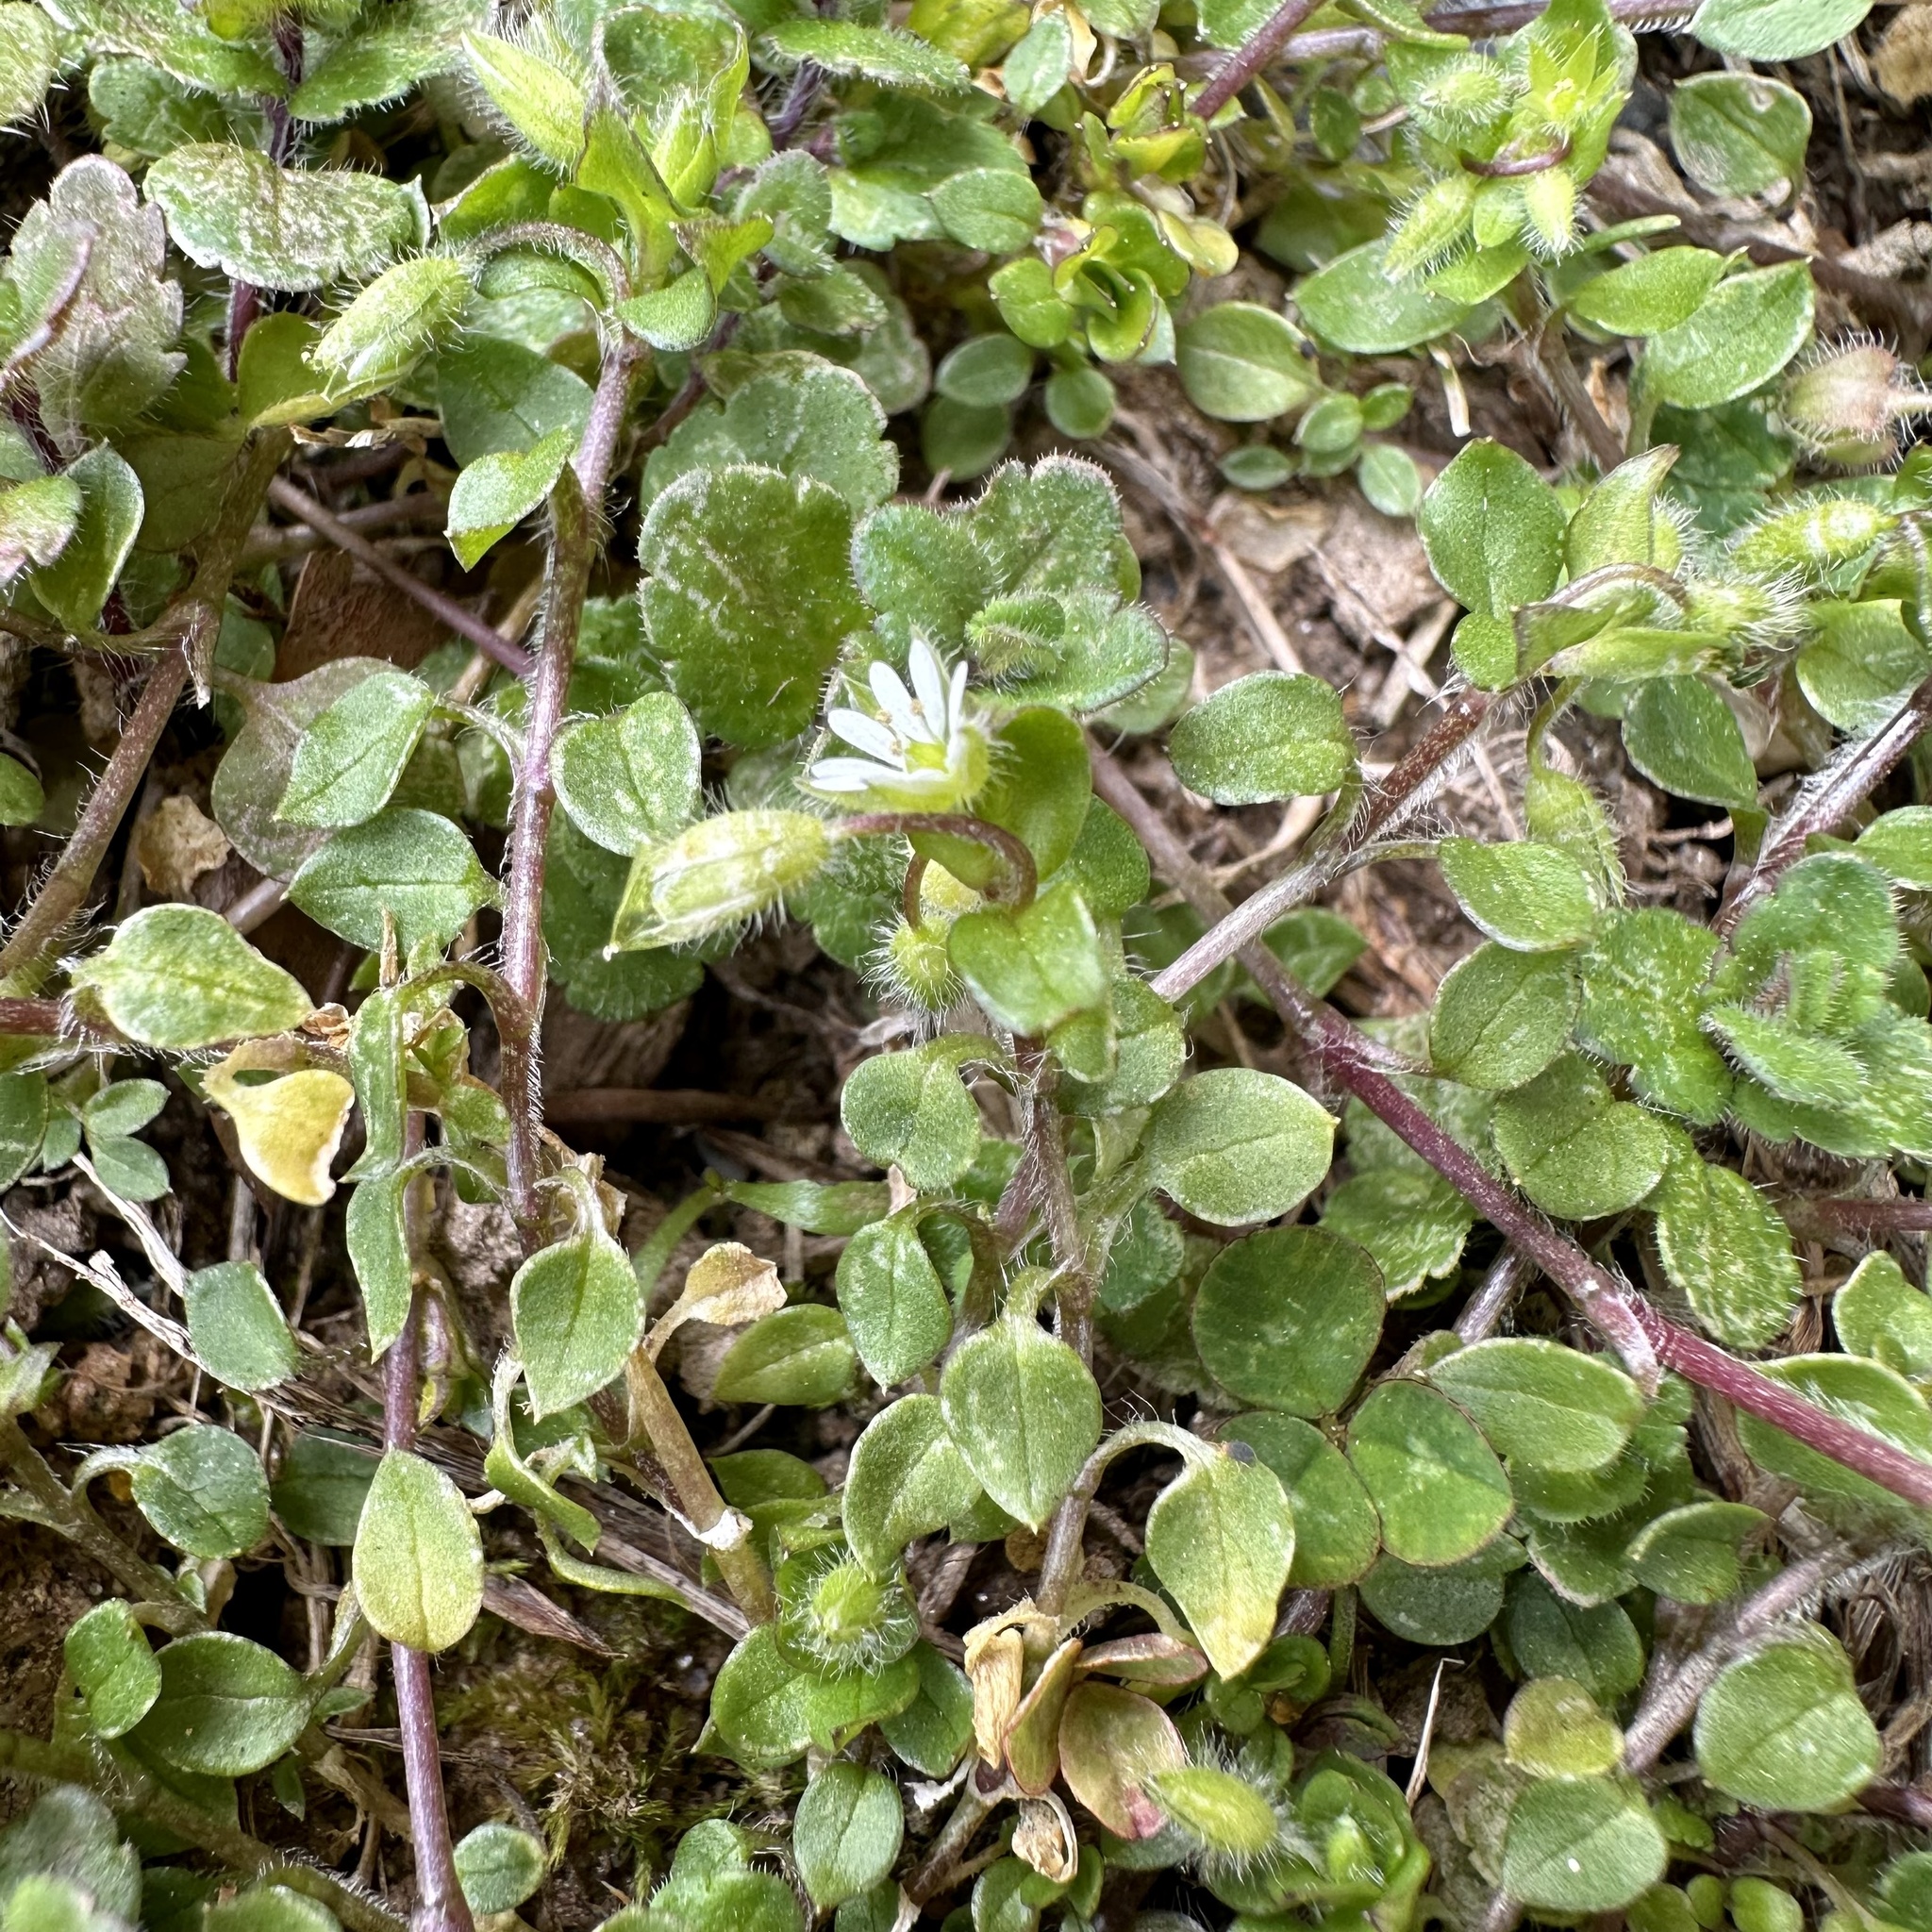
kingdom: Plantae
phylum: Tracheophyta
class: Magnoliopsida
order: Caryophyllales
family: Caryophyllaceae
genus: Stellaria
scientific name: Stellaria media
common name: Common chickweed
